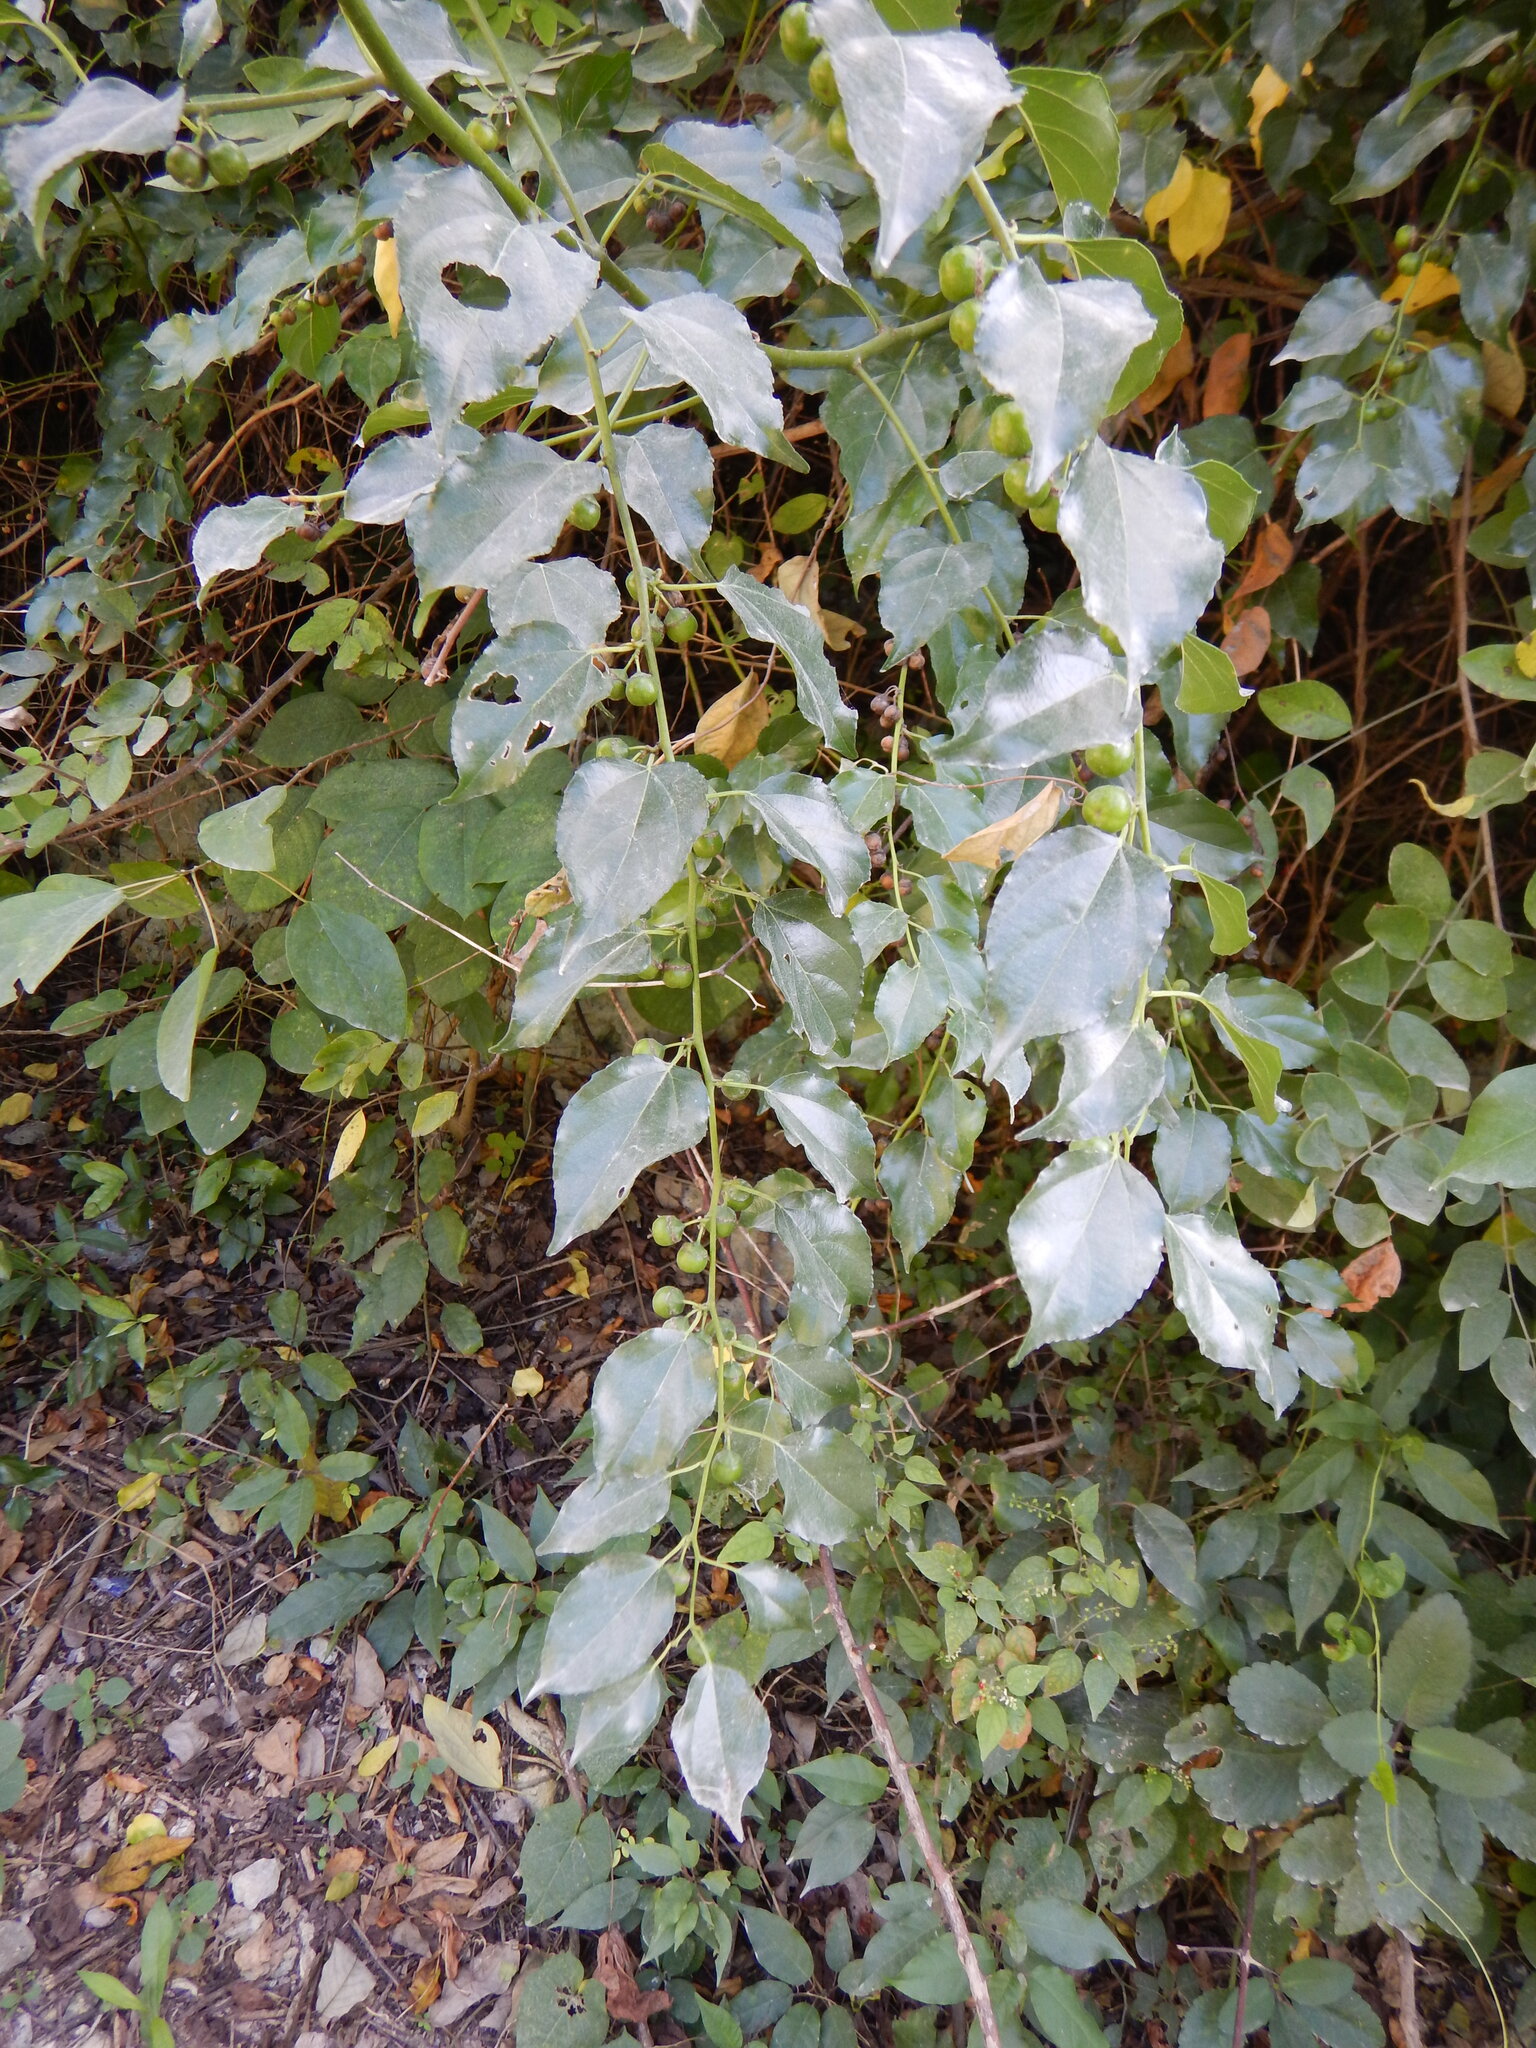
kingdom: Plantae
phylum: Tracheophyta
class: Magnoliopsida
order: Rosales
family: Rhamnaceae
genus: Colubrina
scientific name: Colubrina asiatica
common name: Asian nakedwood
